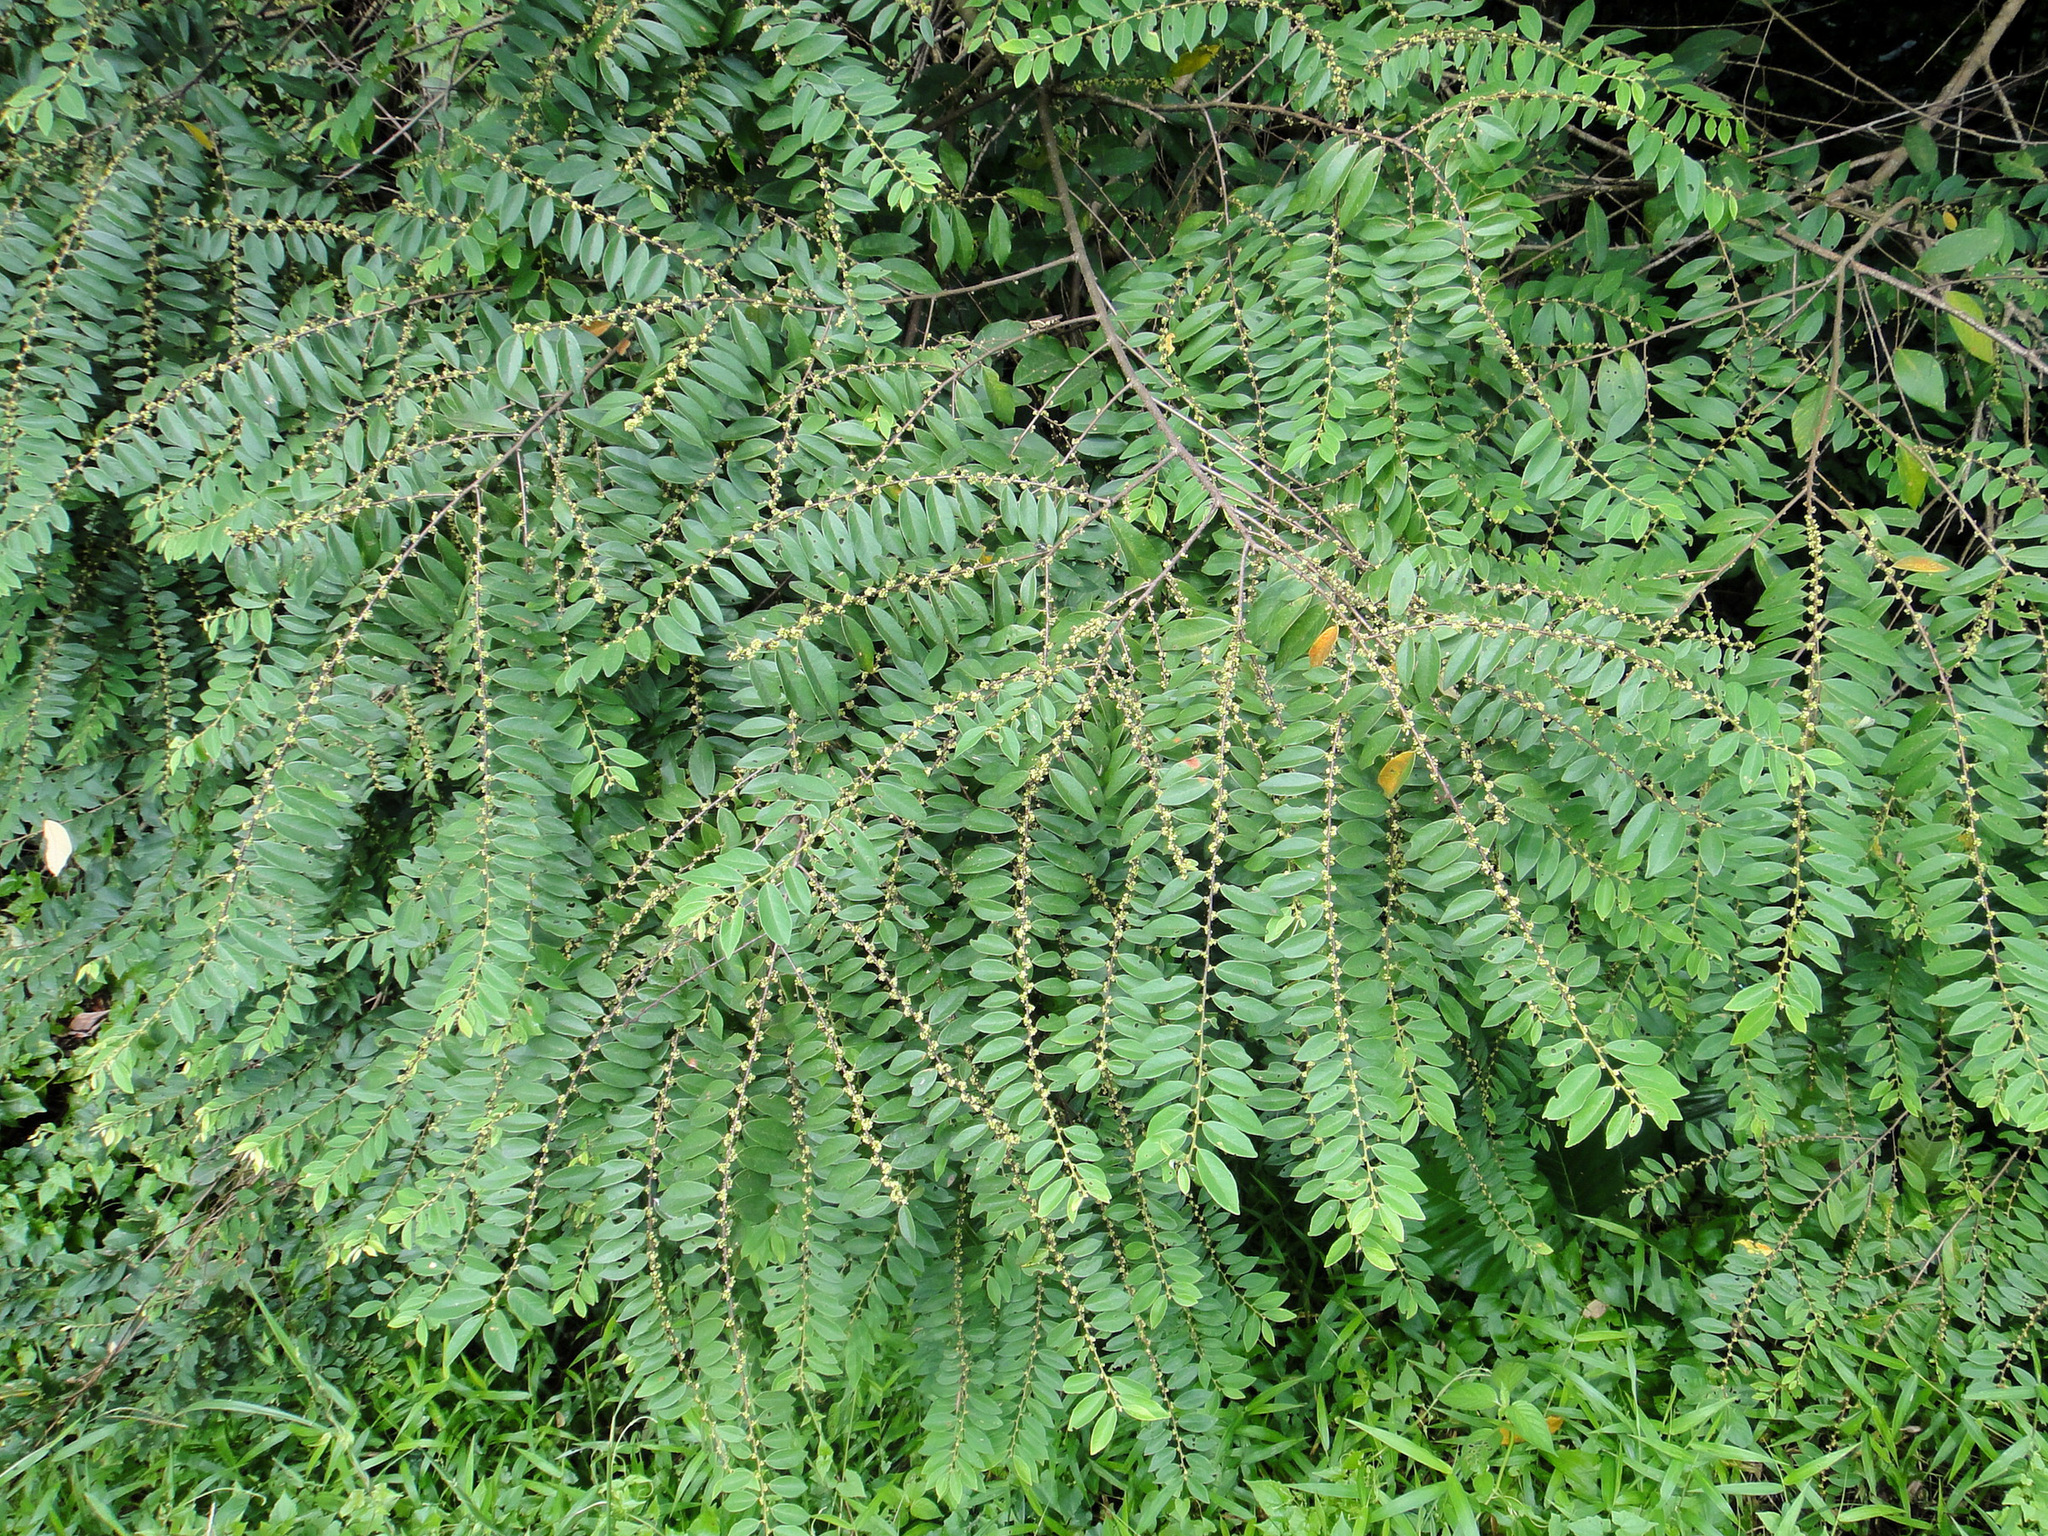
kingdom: Plantae
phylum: Tracheophyta
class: Magnoliopsida
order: Malpighiales
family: Phyllanthaceae
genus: Bridelia
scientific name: Bridelia tomentosa
